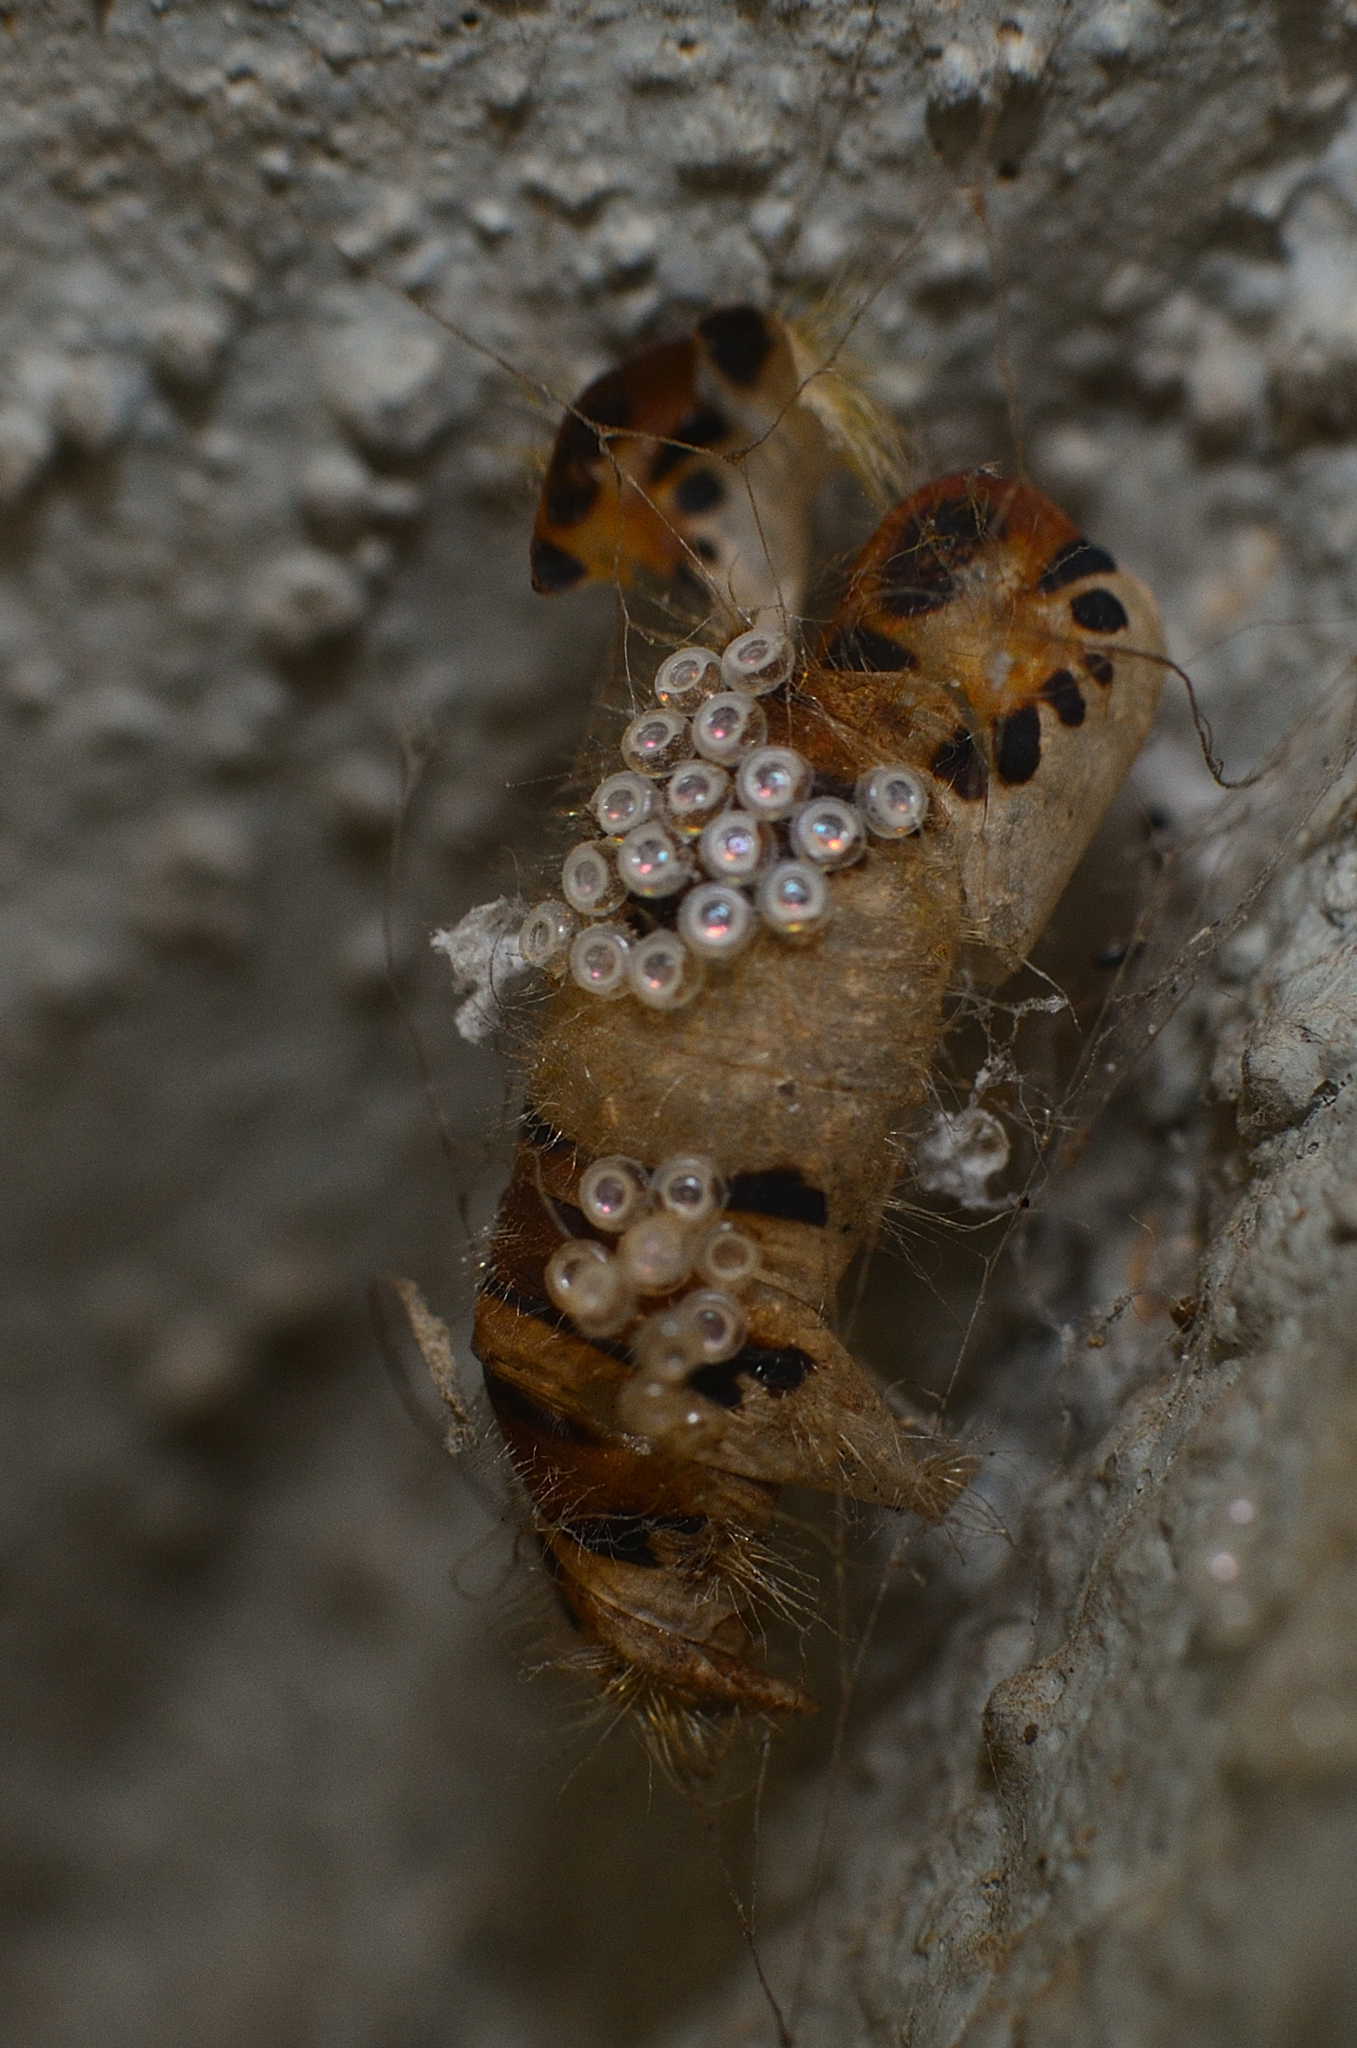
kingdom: Animalia
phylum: Arthropoda
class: Insecta
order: Lepidoptera
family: Erebidae
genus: Perina
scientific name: Perina nuda
